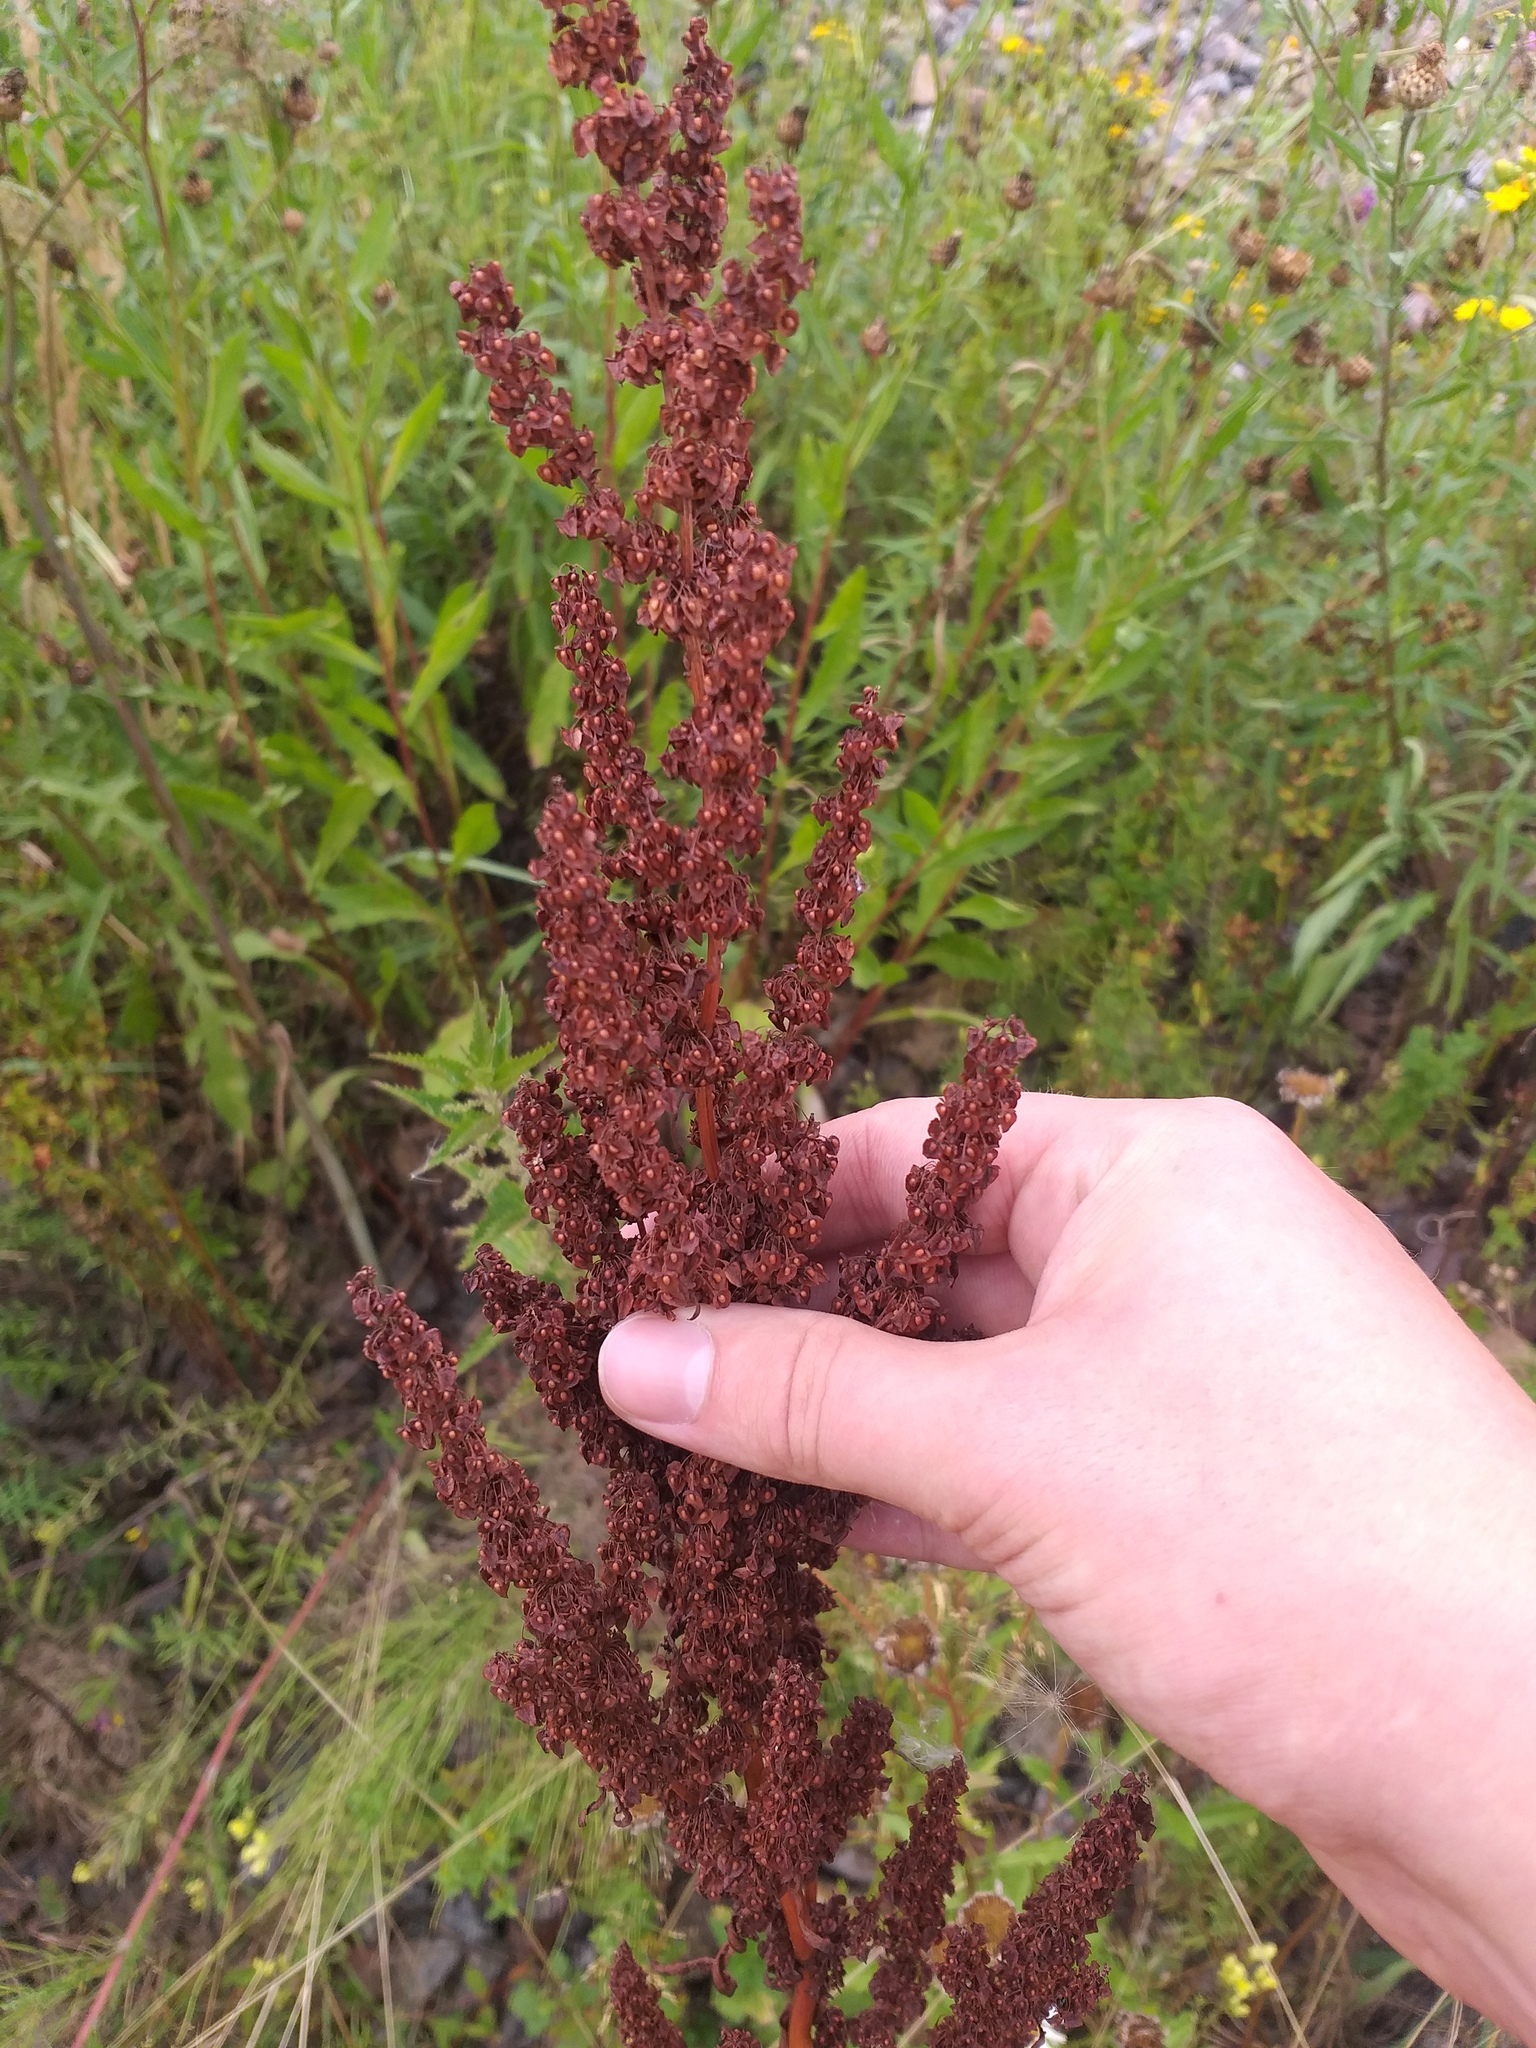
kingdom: Plantae
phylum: Tracheophyta
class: Magnoliopsida
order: Caryophyllales
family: Polygonaceae
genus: Rumex
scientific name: Rumex crispus
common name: Curled dock
